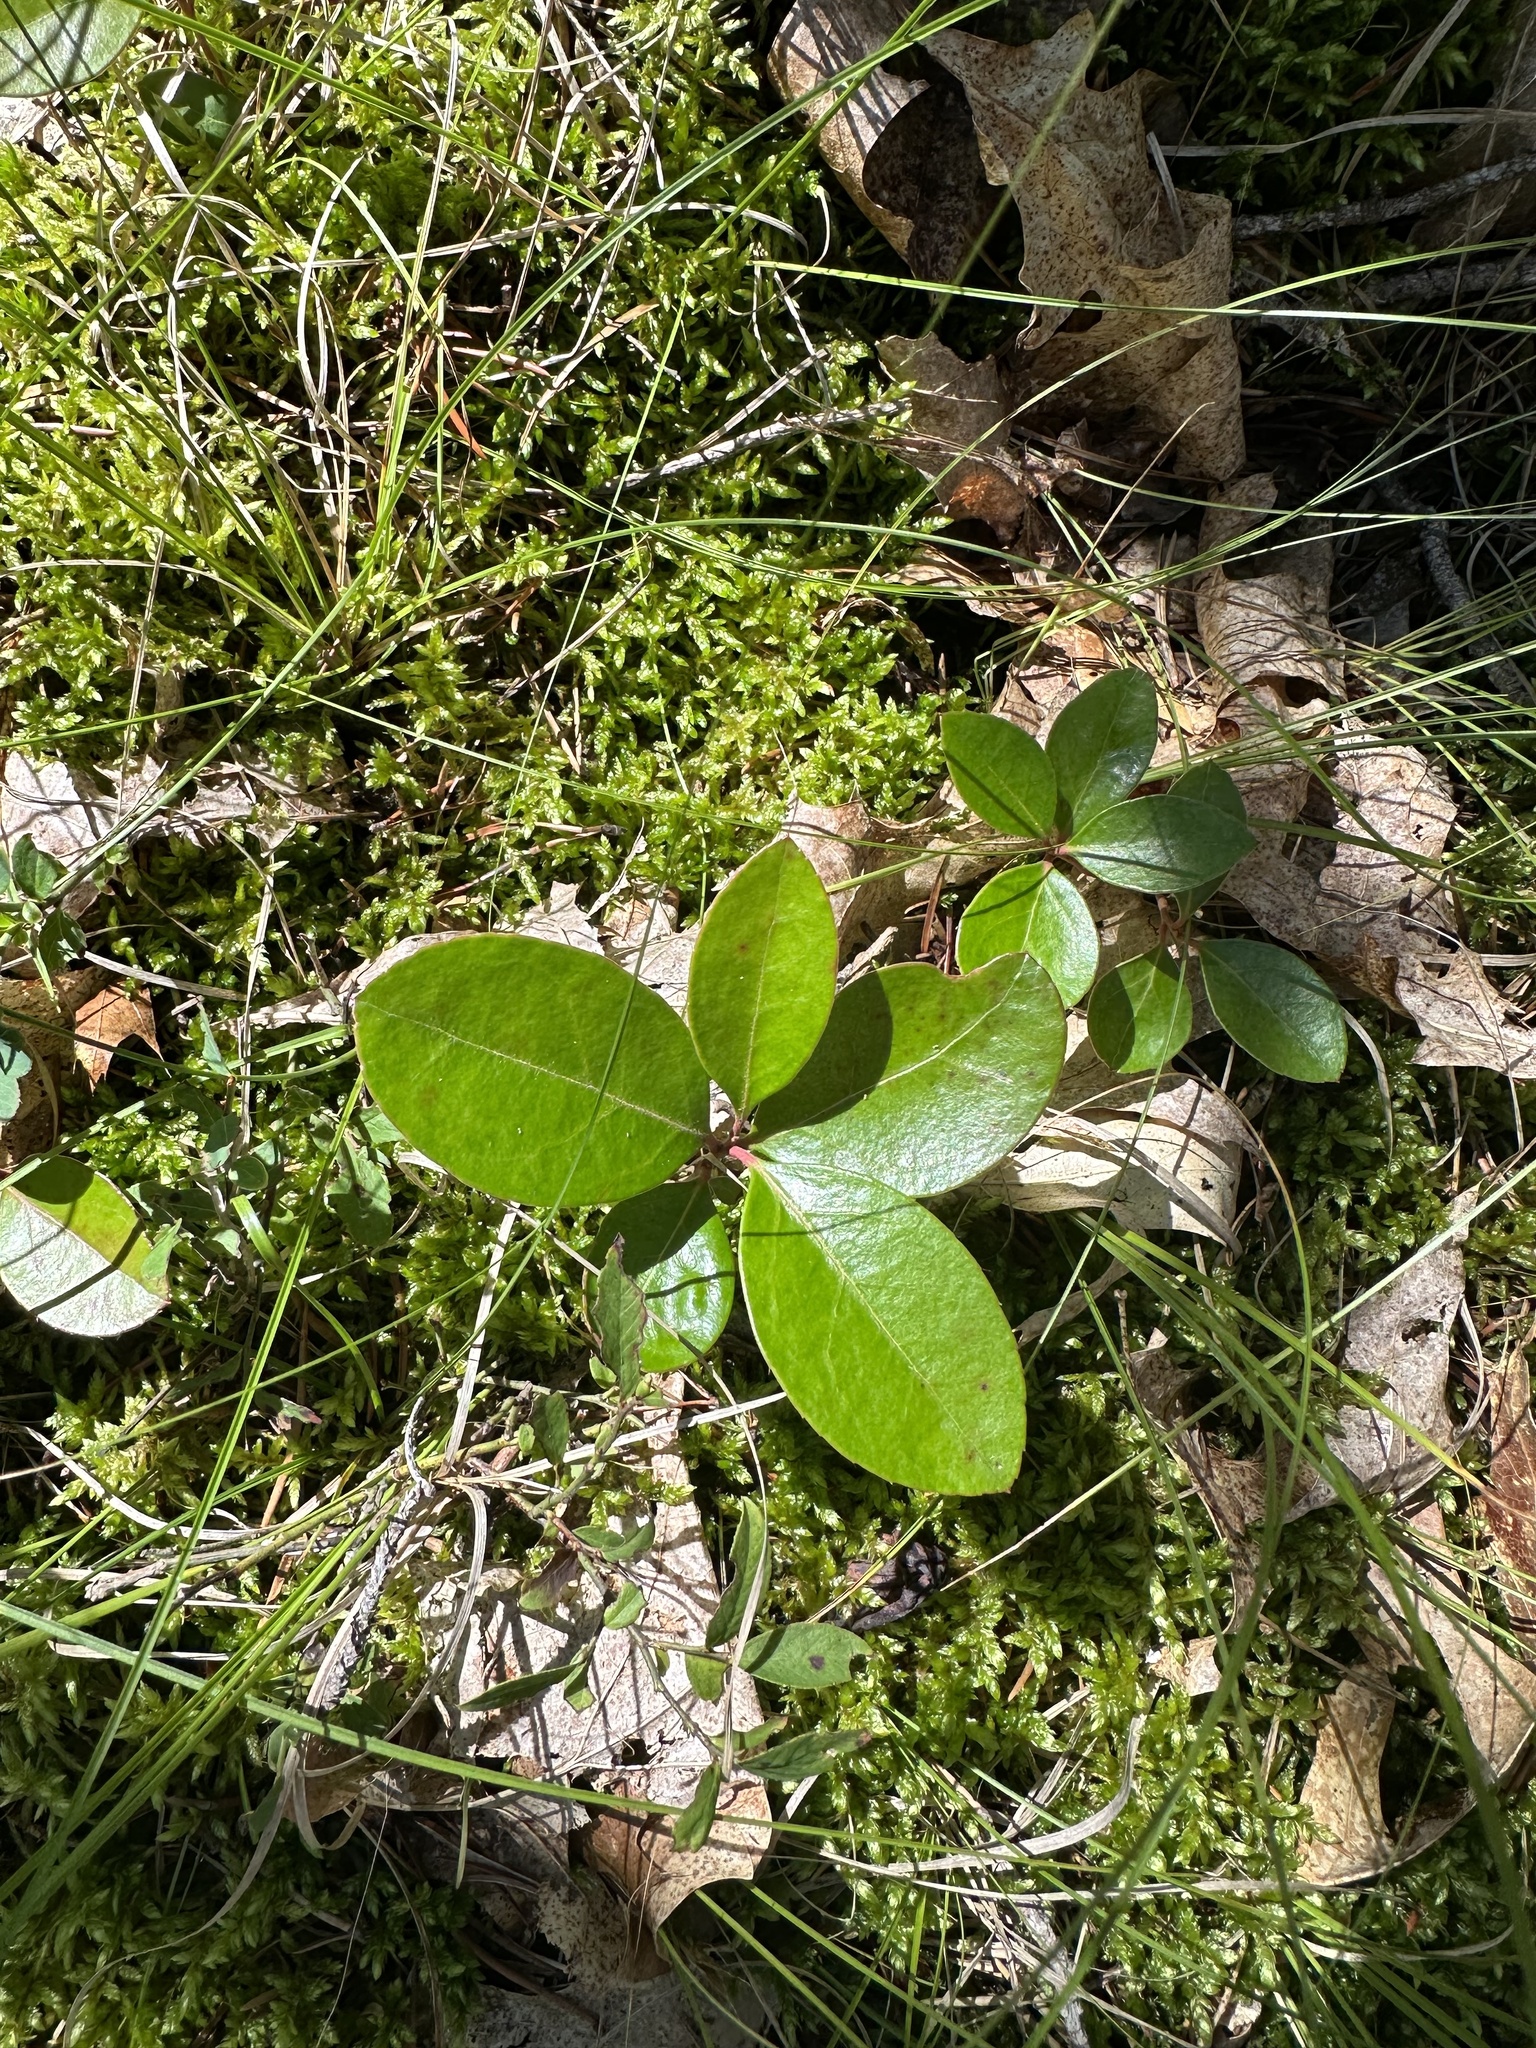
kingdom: Plantae
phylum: Tracheophyta
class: Magnoliopsida
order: Ericales
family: Ericaceae
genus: Gaultheria
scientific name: Gaultheria procumbens
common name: Checkerberry
